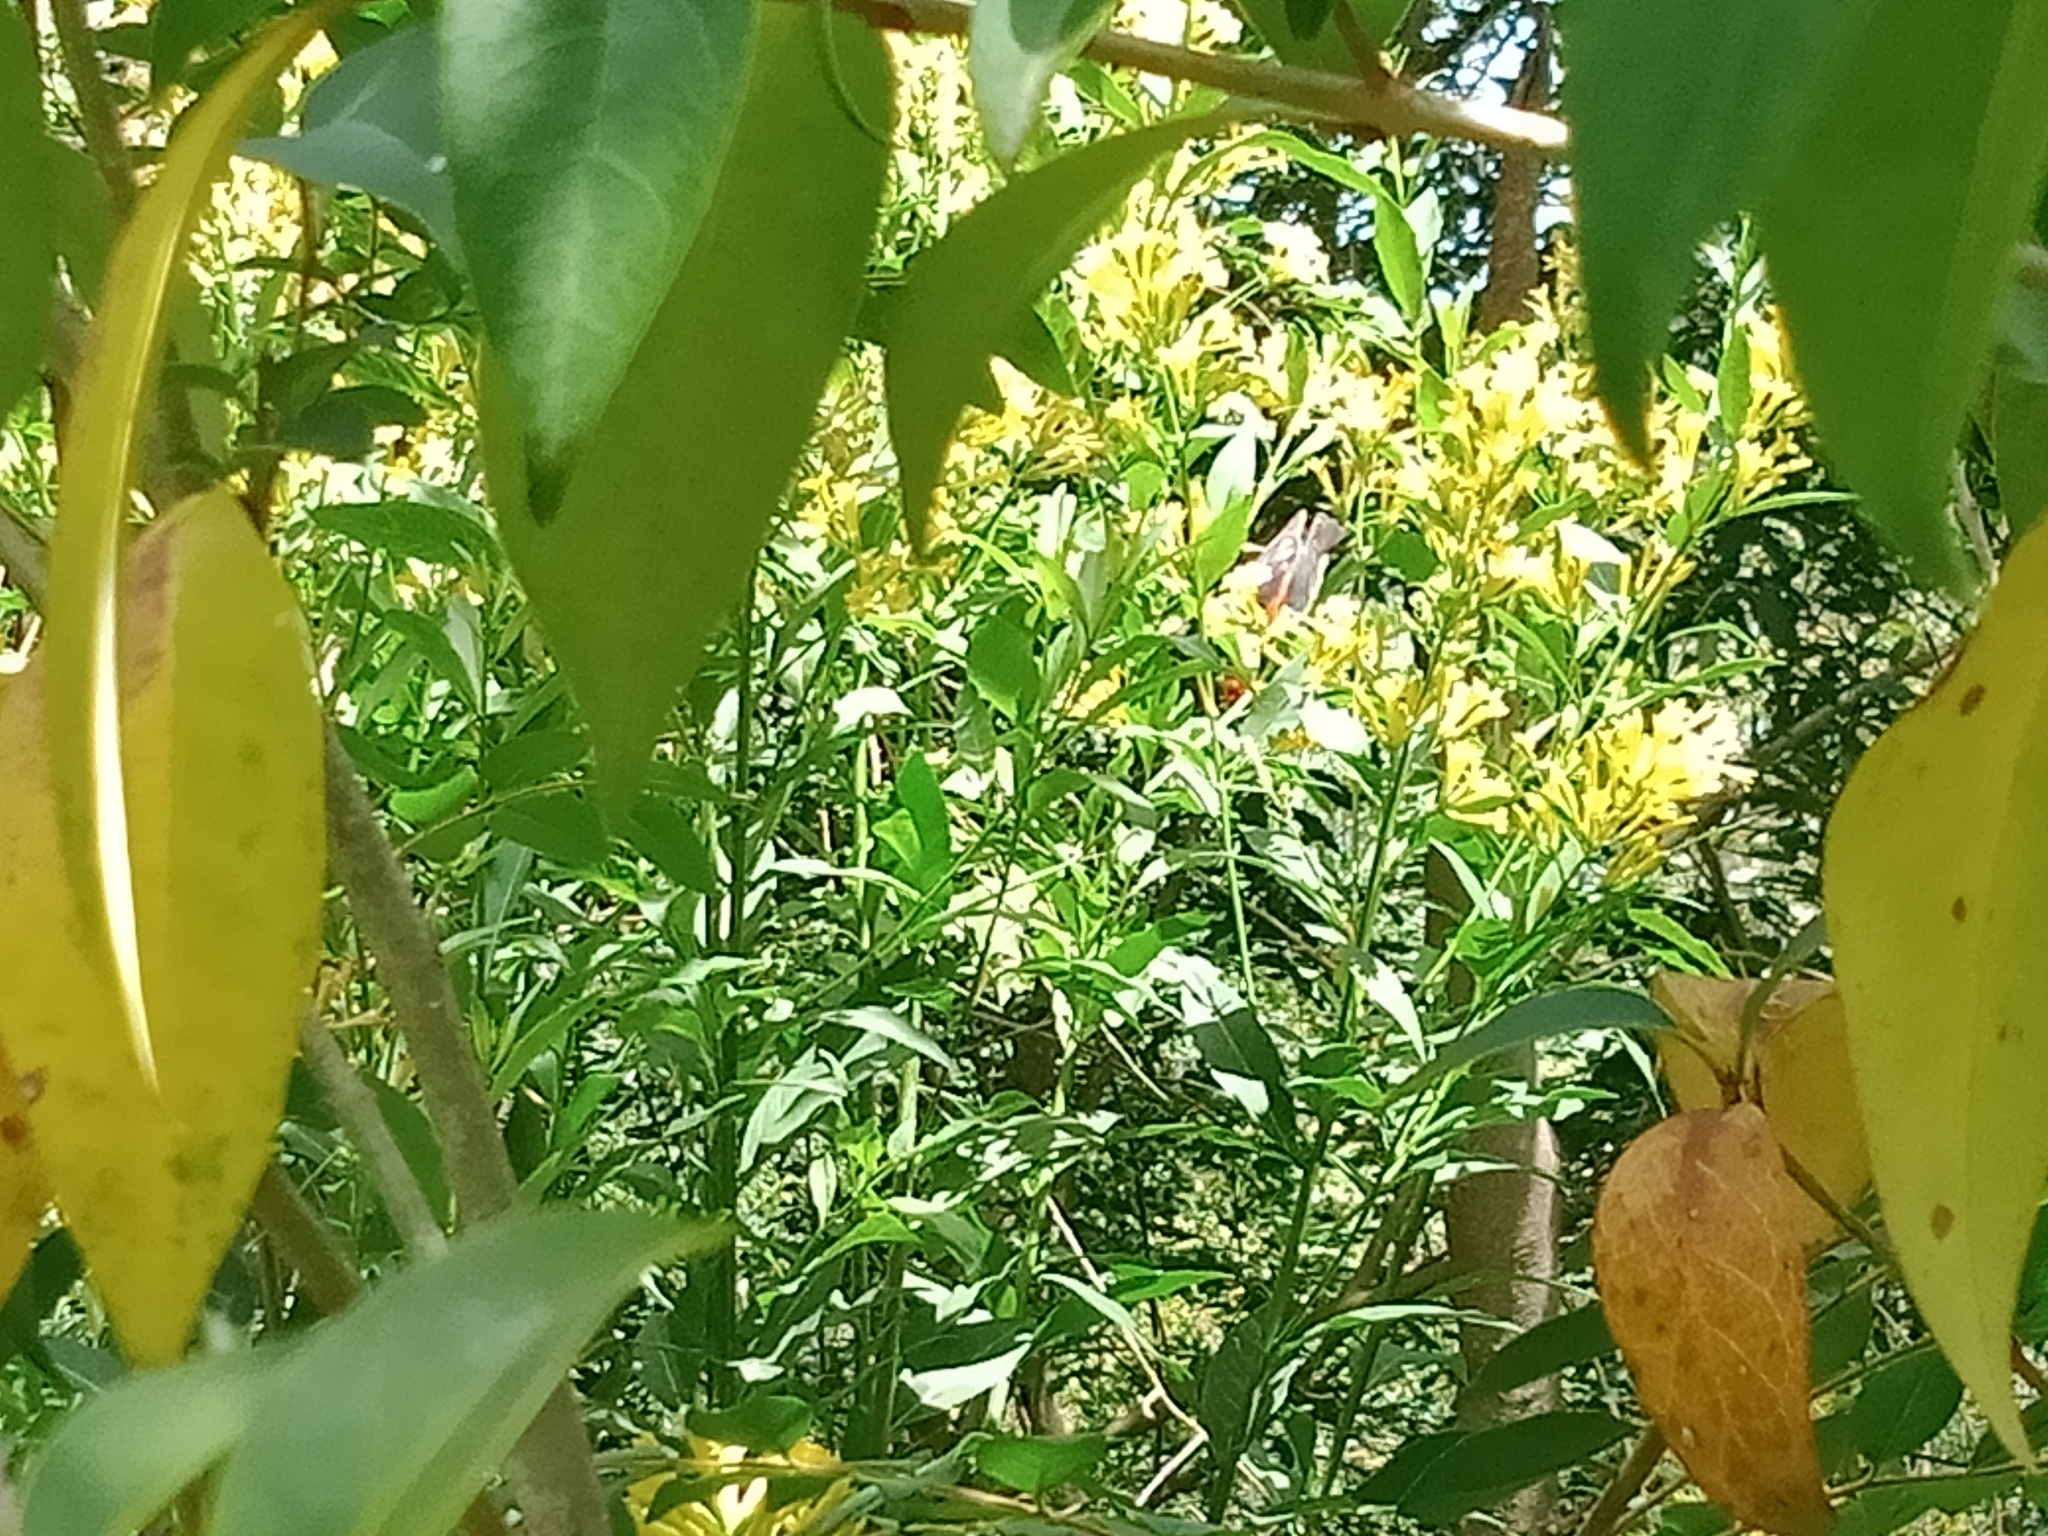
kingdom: Plantae
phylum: Tracheophyta
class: Magnoliopsida
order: Solanales
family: Solanaceae
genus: Cestrum
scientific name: Cestrum parqui
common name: Chilean cestrum
